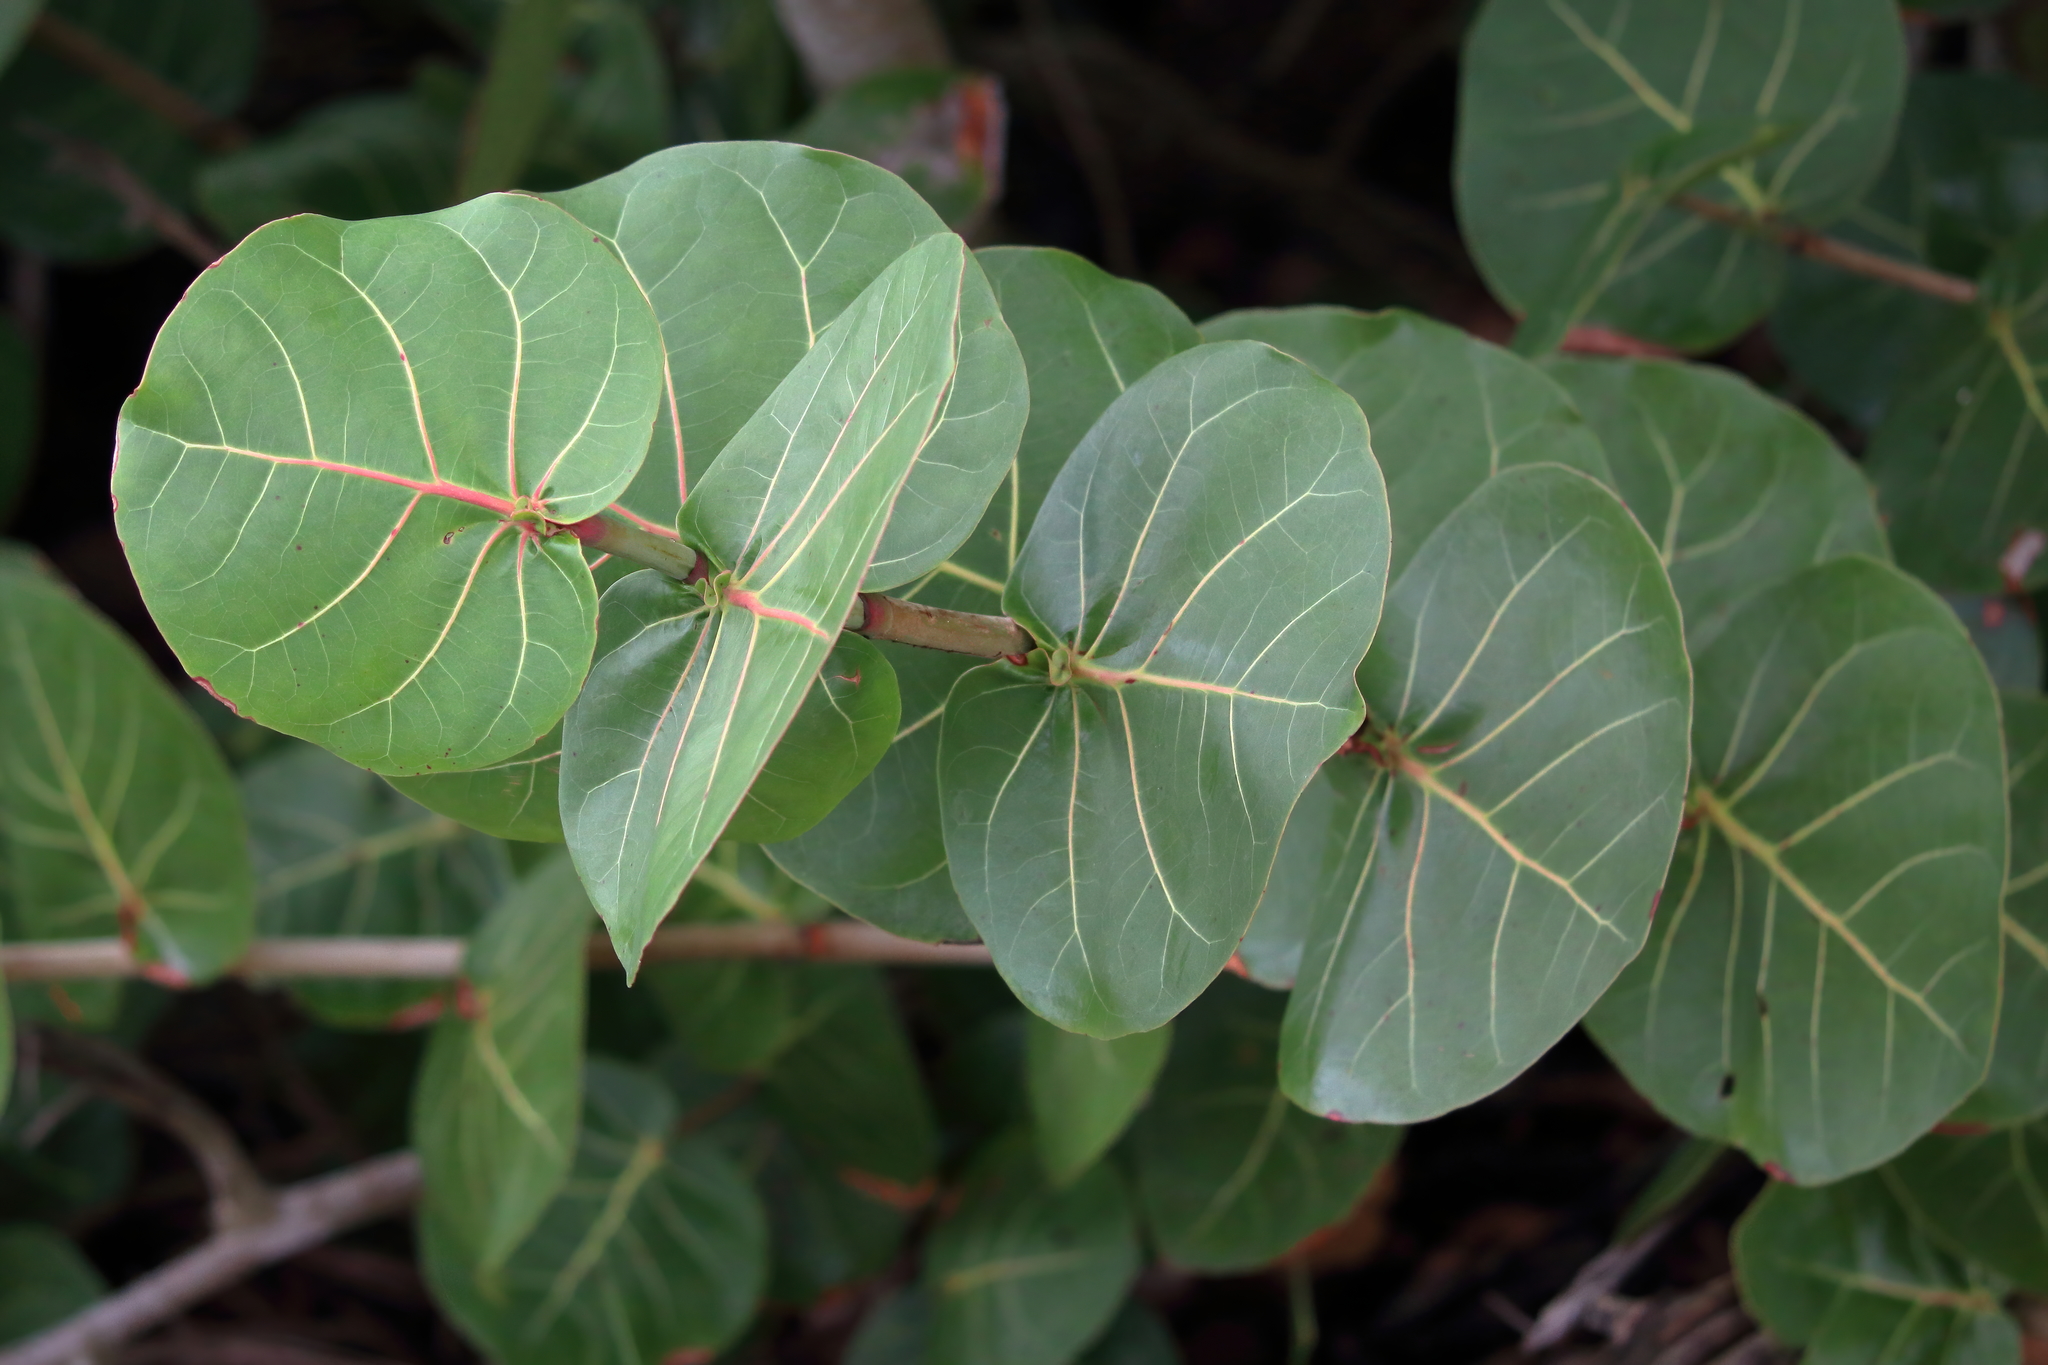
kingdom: Plantae
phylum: Tracheophyta
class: Magnoliopsida
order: Caryophyllales
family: Polygonaceae
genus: Coccoloba
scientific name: Coccoloba uvifera
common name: Seagrape
